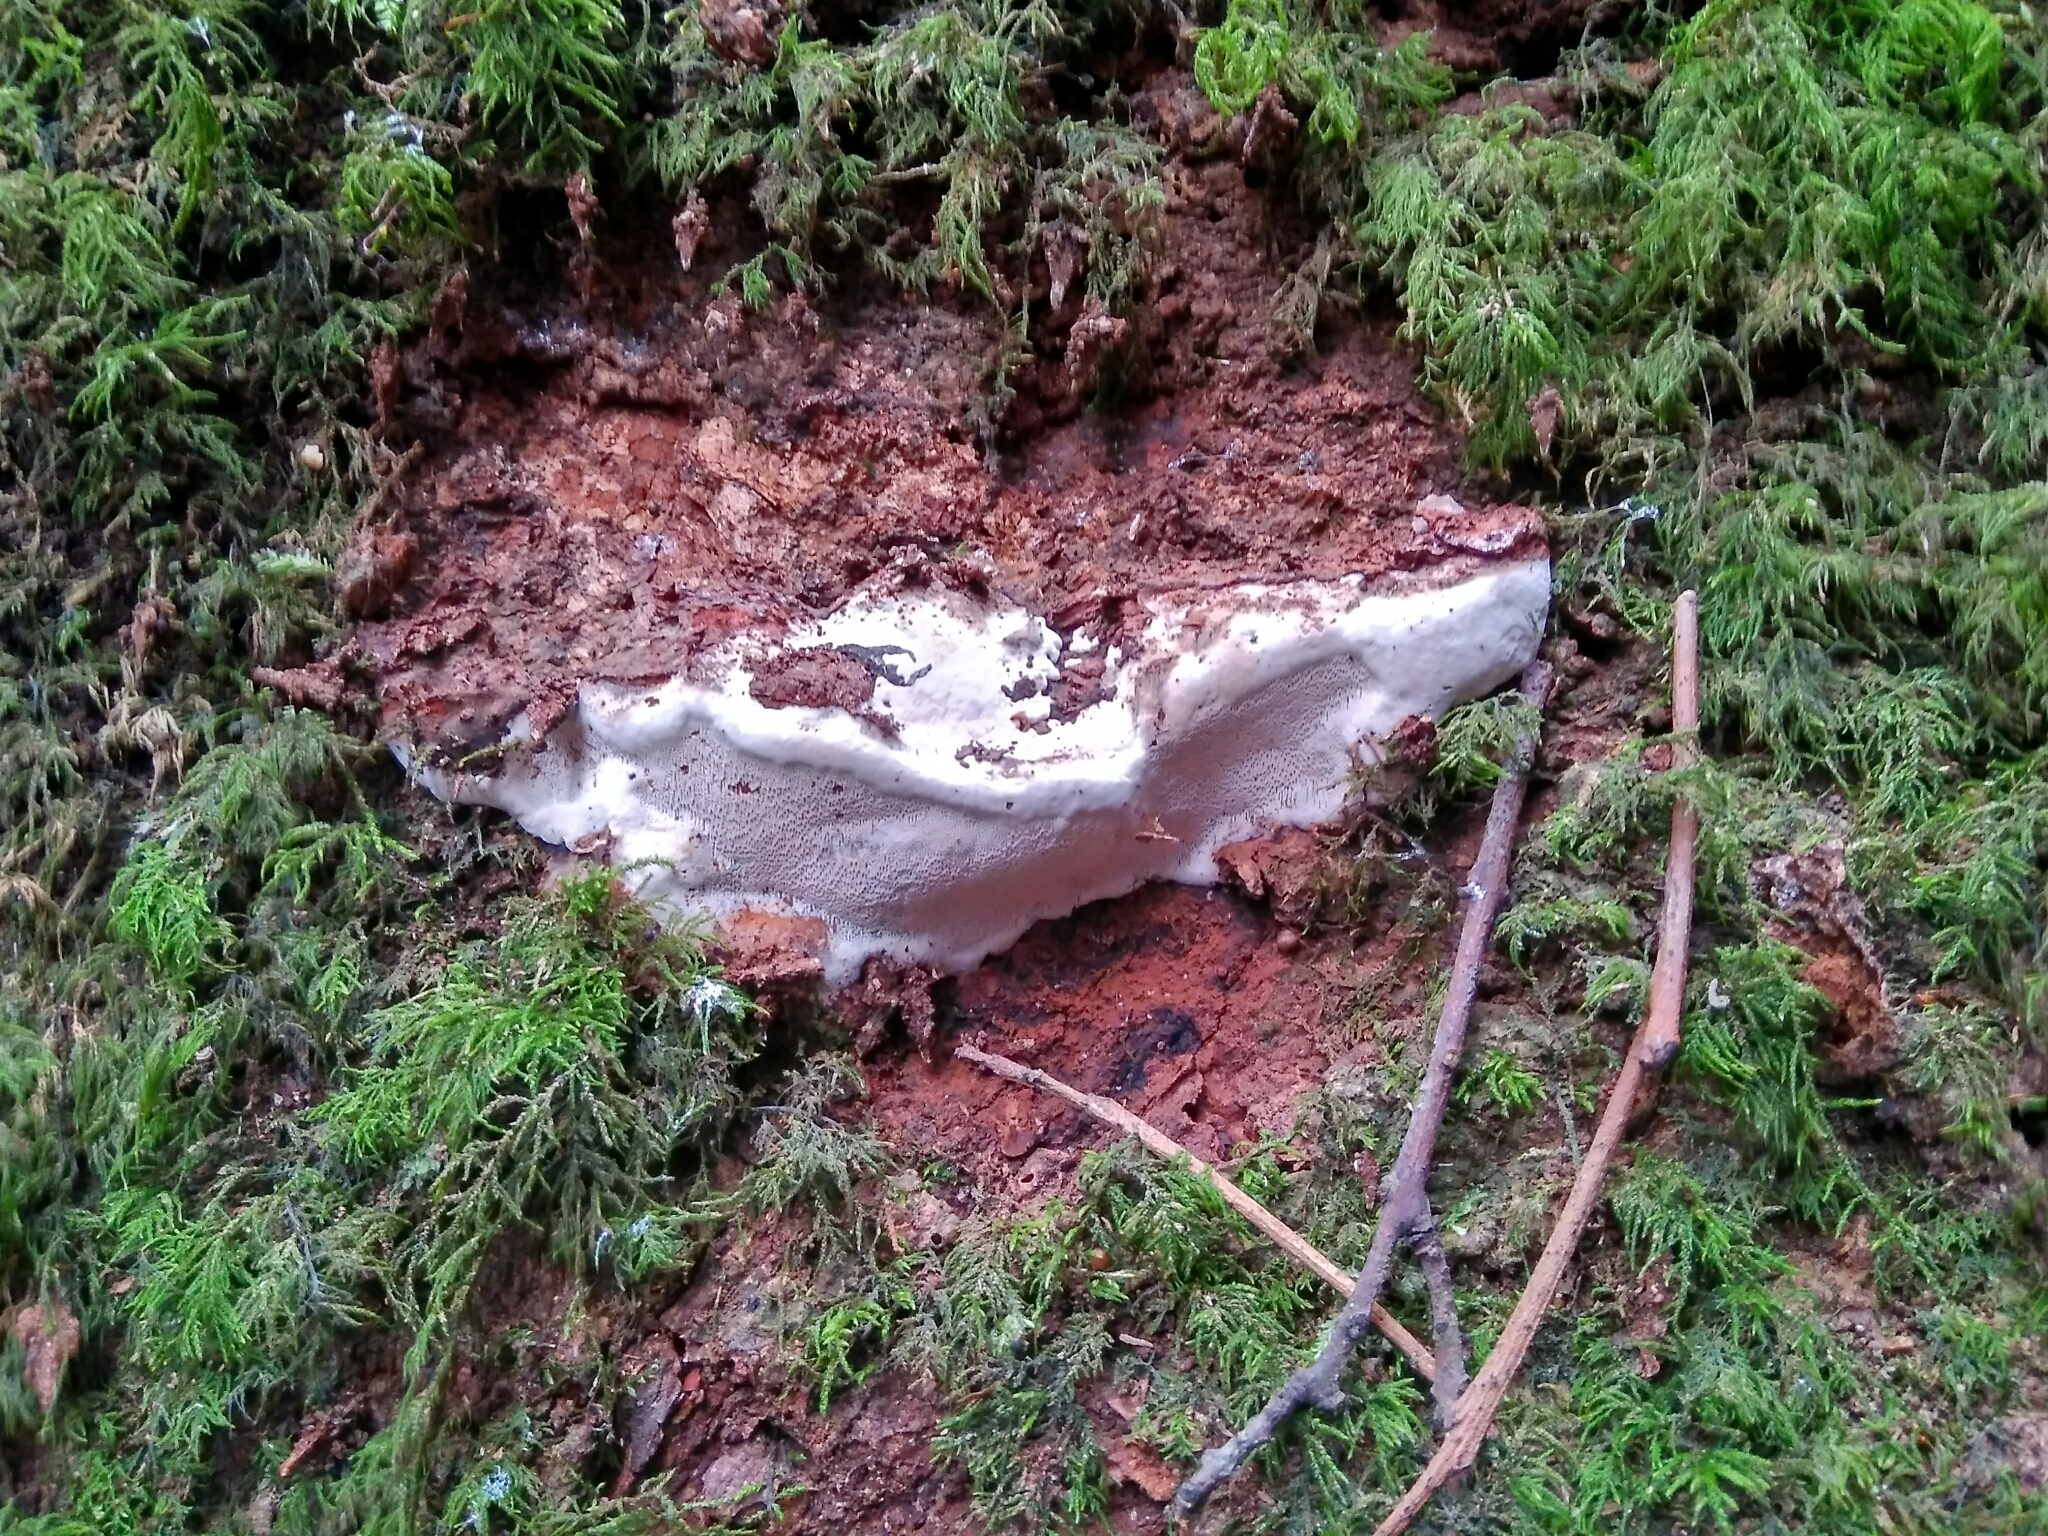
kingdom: Fungi
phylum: Basidiomycota
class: Agaricomycetes
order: Polyporales
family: Polyporaceae
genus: Ganoderma
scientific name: Ganoderma australe
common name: Southern bracket
